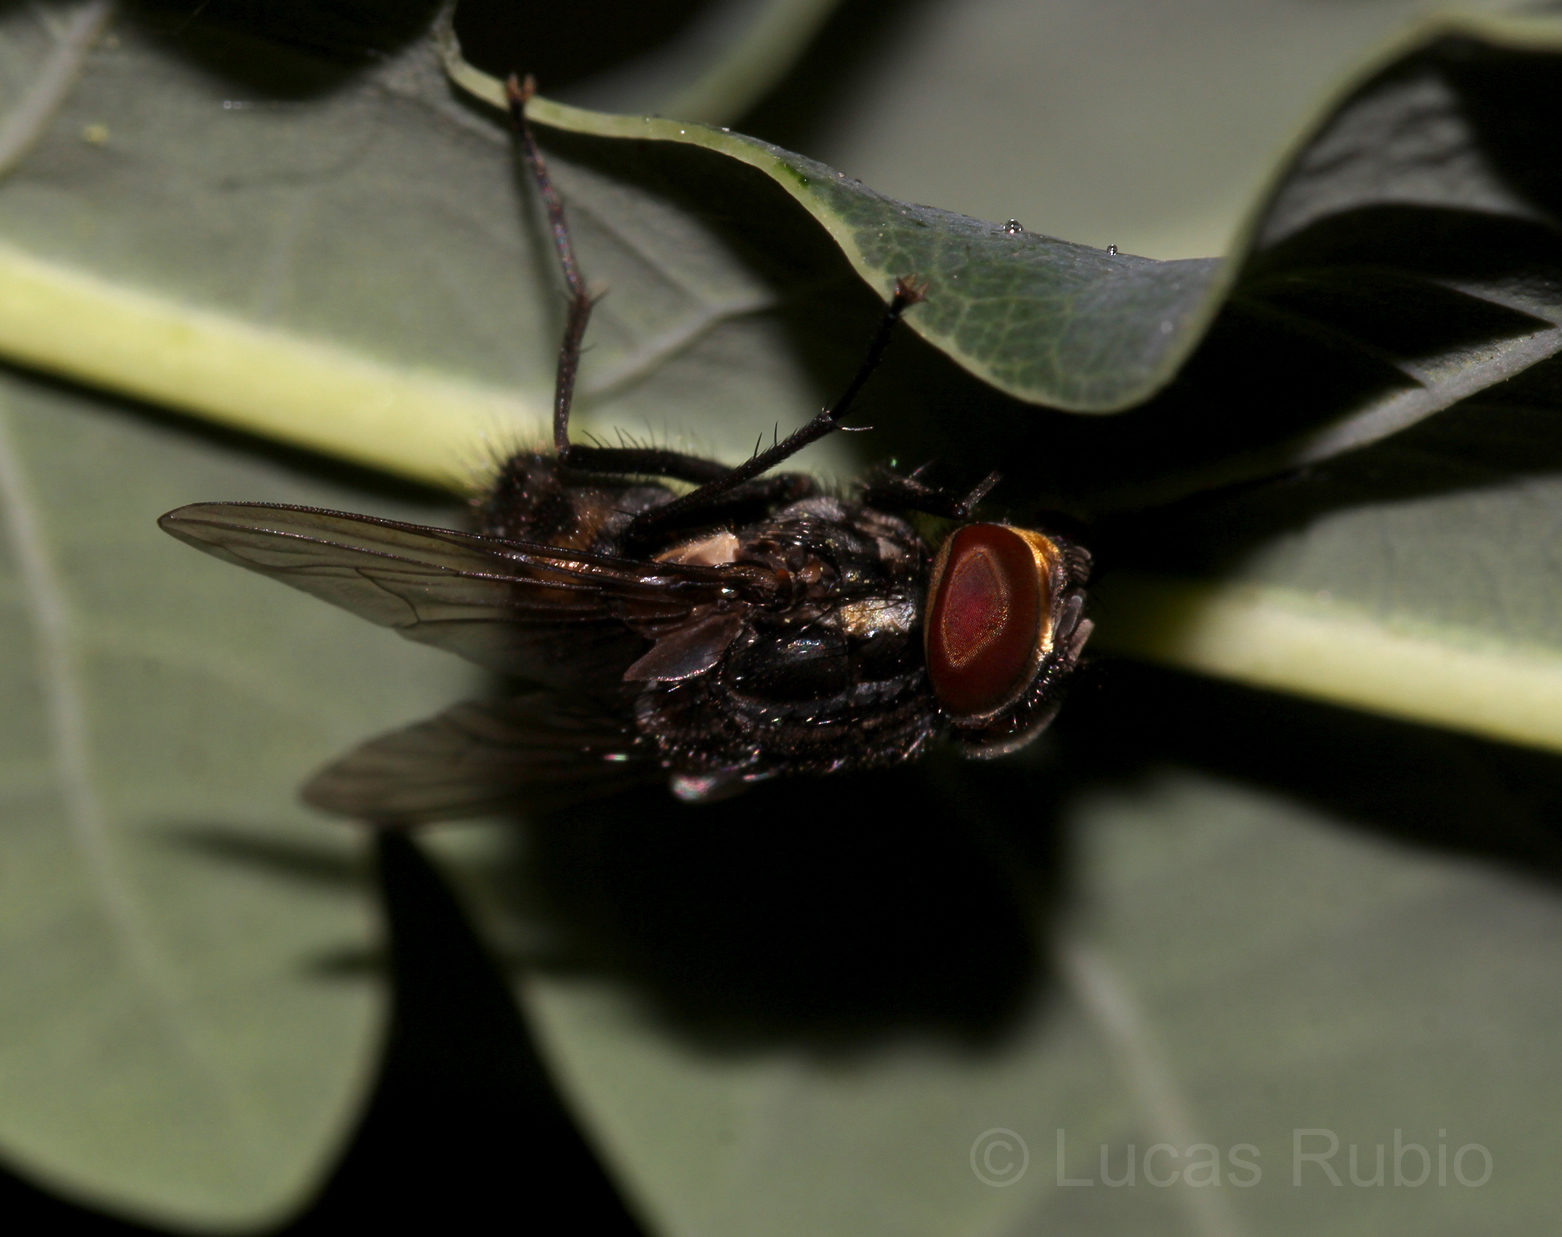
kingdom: Animalia
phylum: Arthropoda
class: Insecta
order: Diptera
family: Muscidae
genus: Graphomya
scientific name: Graphomya auriceps
